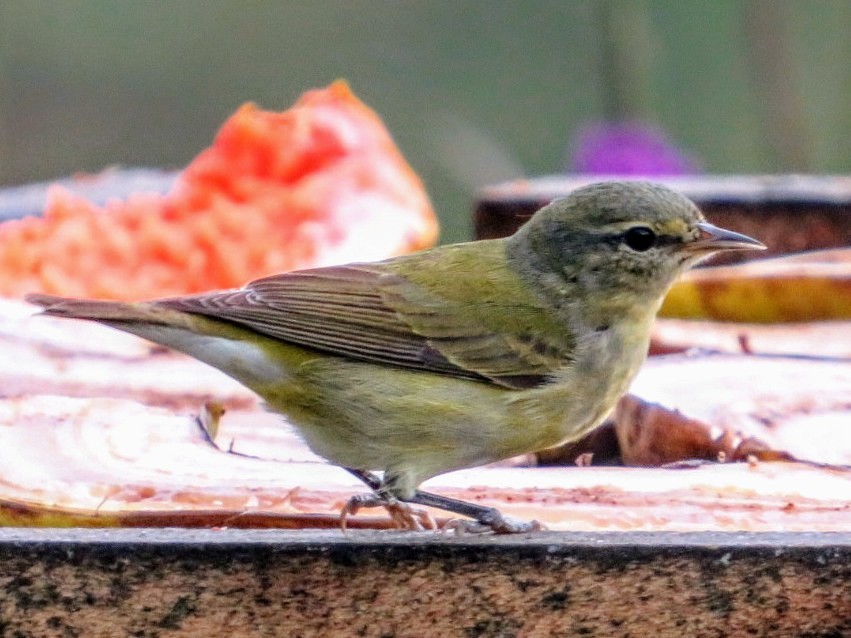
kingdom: Animalia
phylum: Chordata
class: Aves
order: Passeriformes
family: Parulidae
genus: Leiothlypis
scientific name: Leiothlypis peregrina
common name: Tennessee warbler
